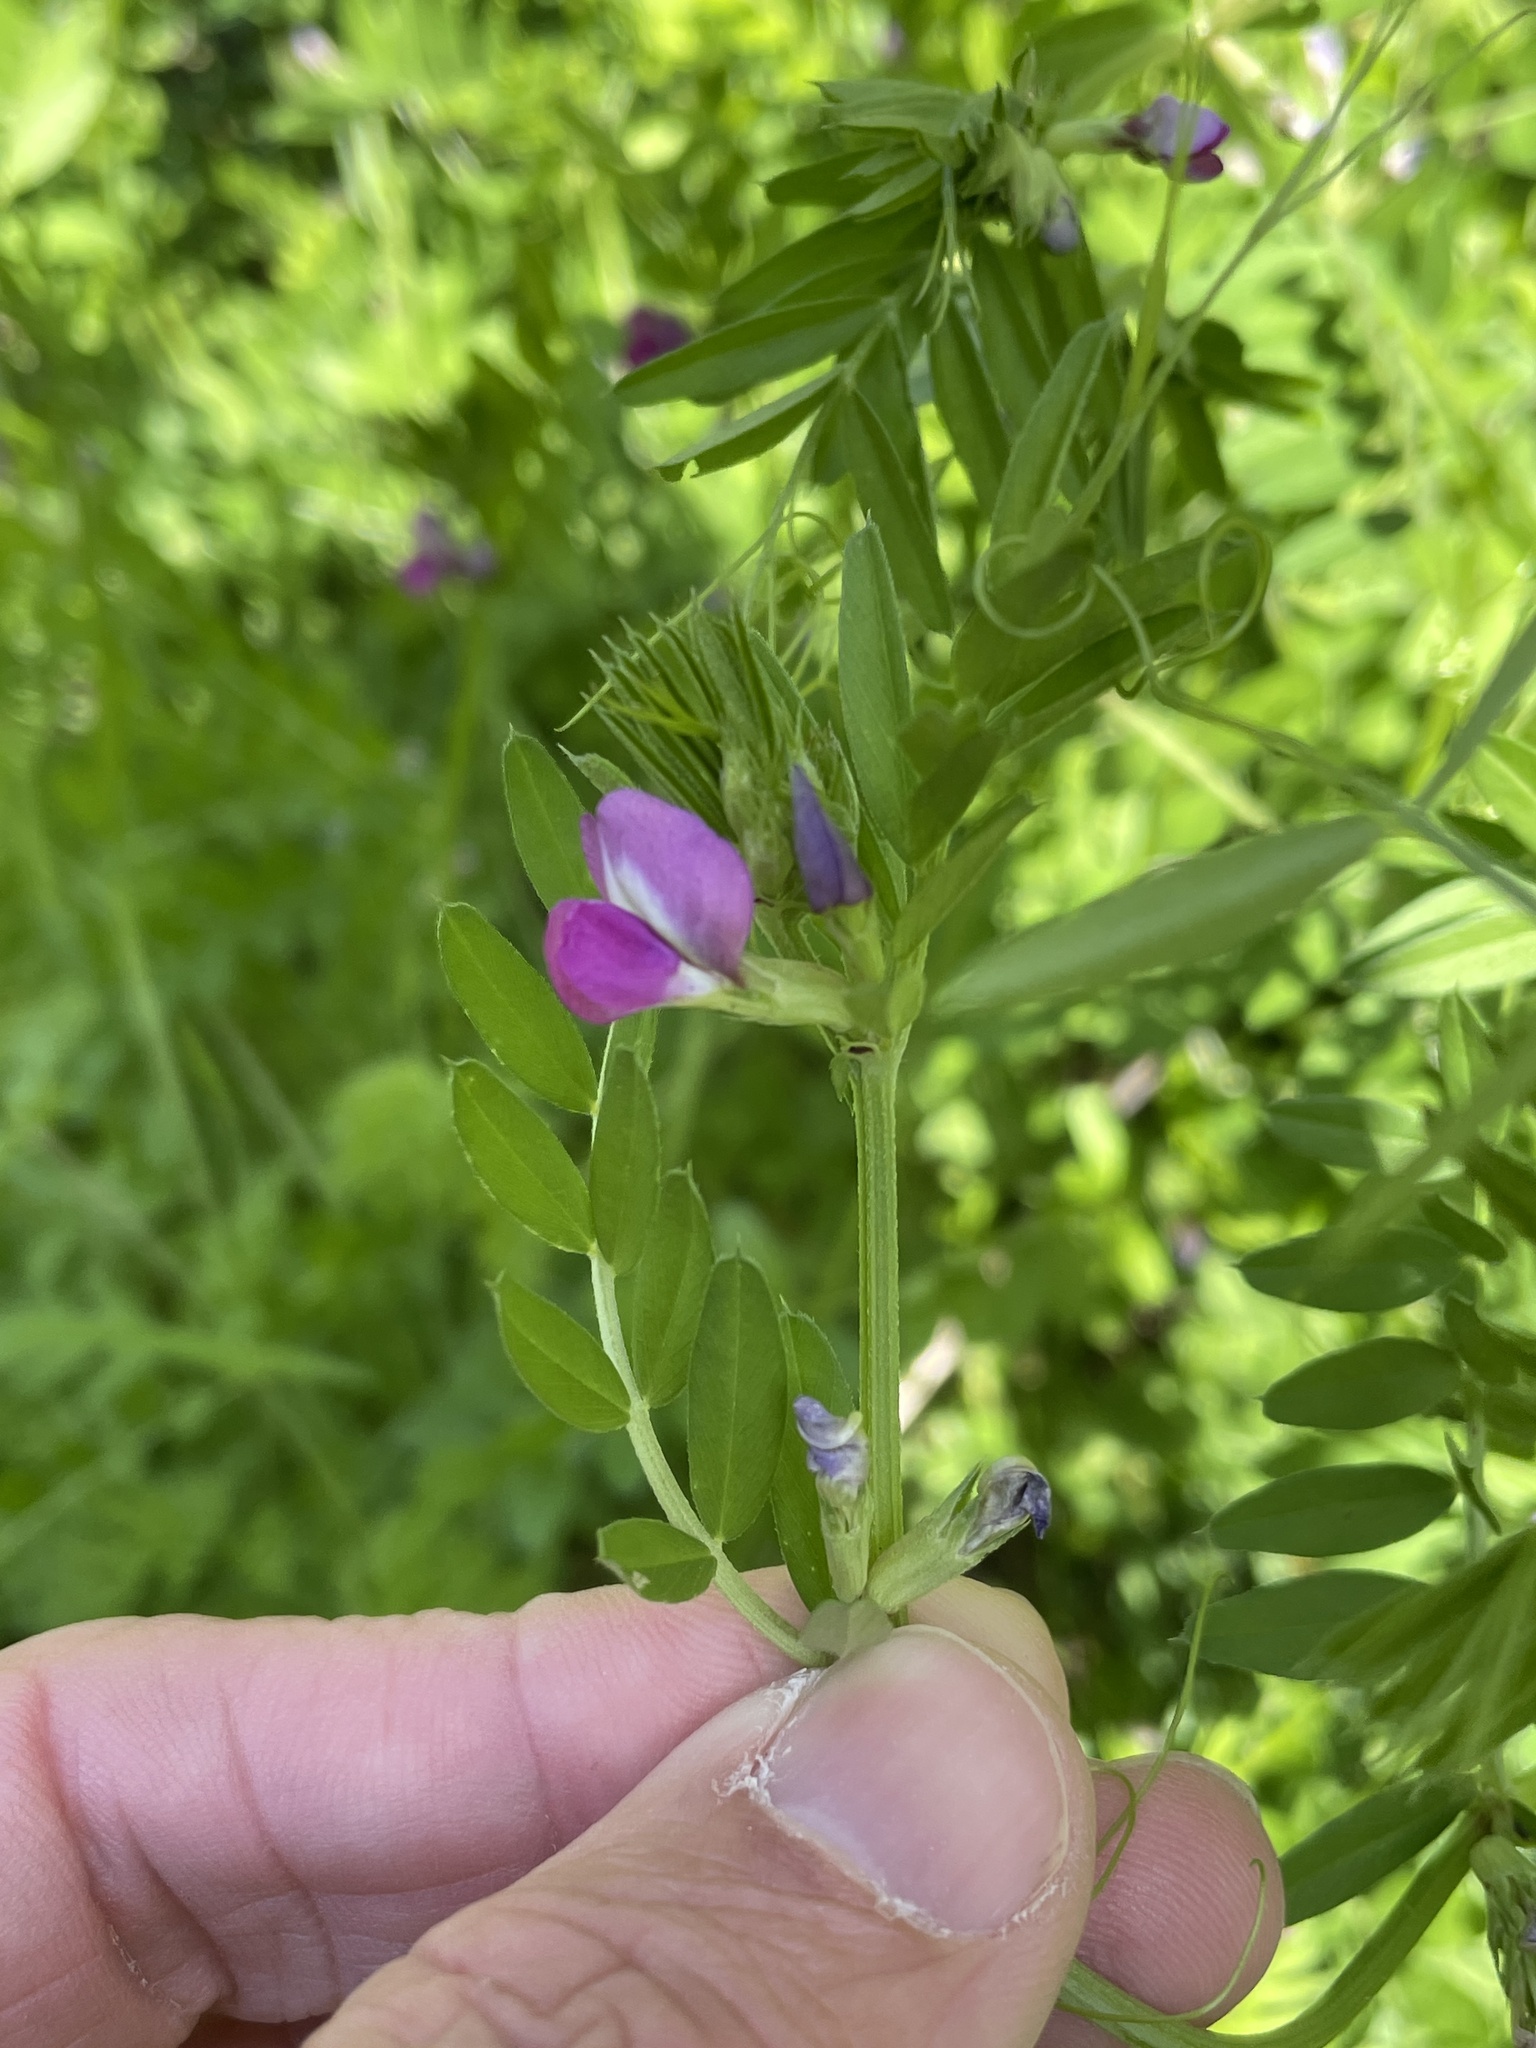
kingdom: Plantae
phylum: Tracheophyta
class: Magnoliopsida
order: Fabales
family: Fabaceae
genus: Vicia
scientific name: Vicia sativa
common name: Garden vetch
